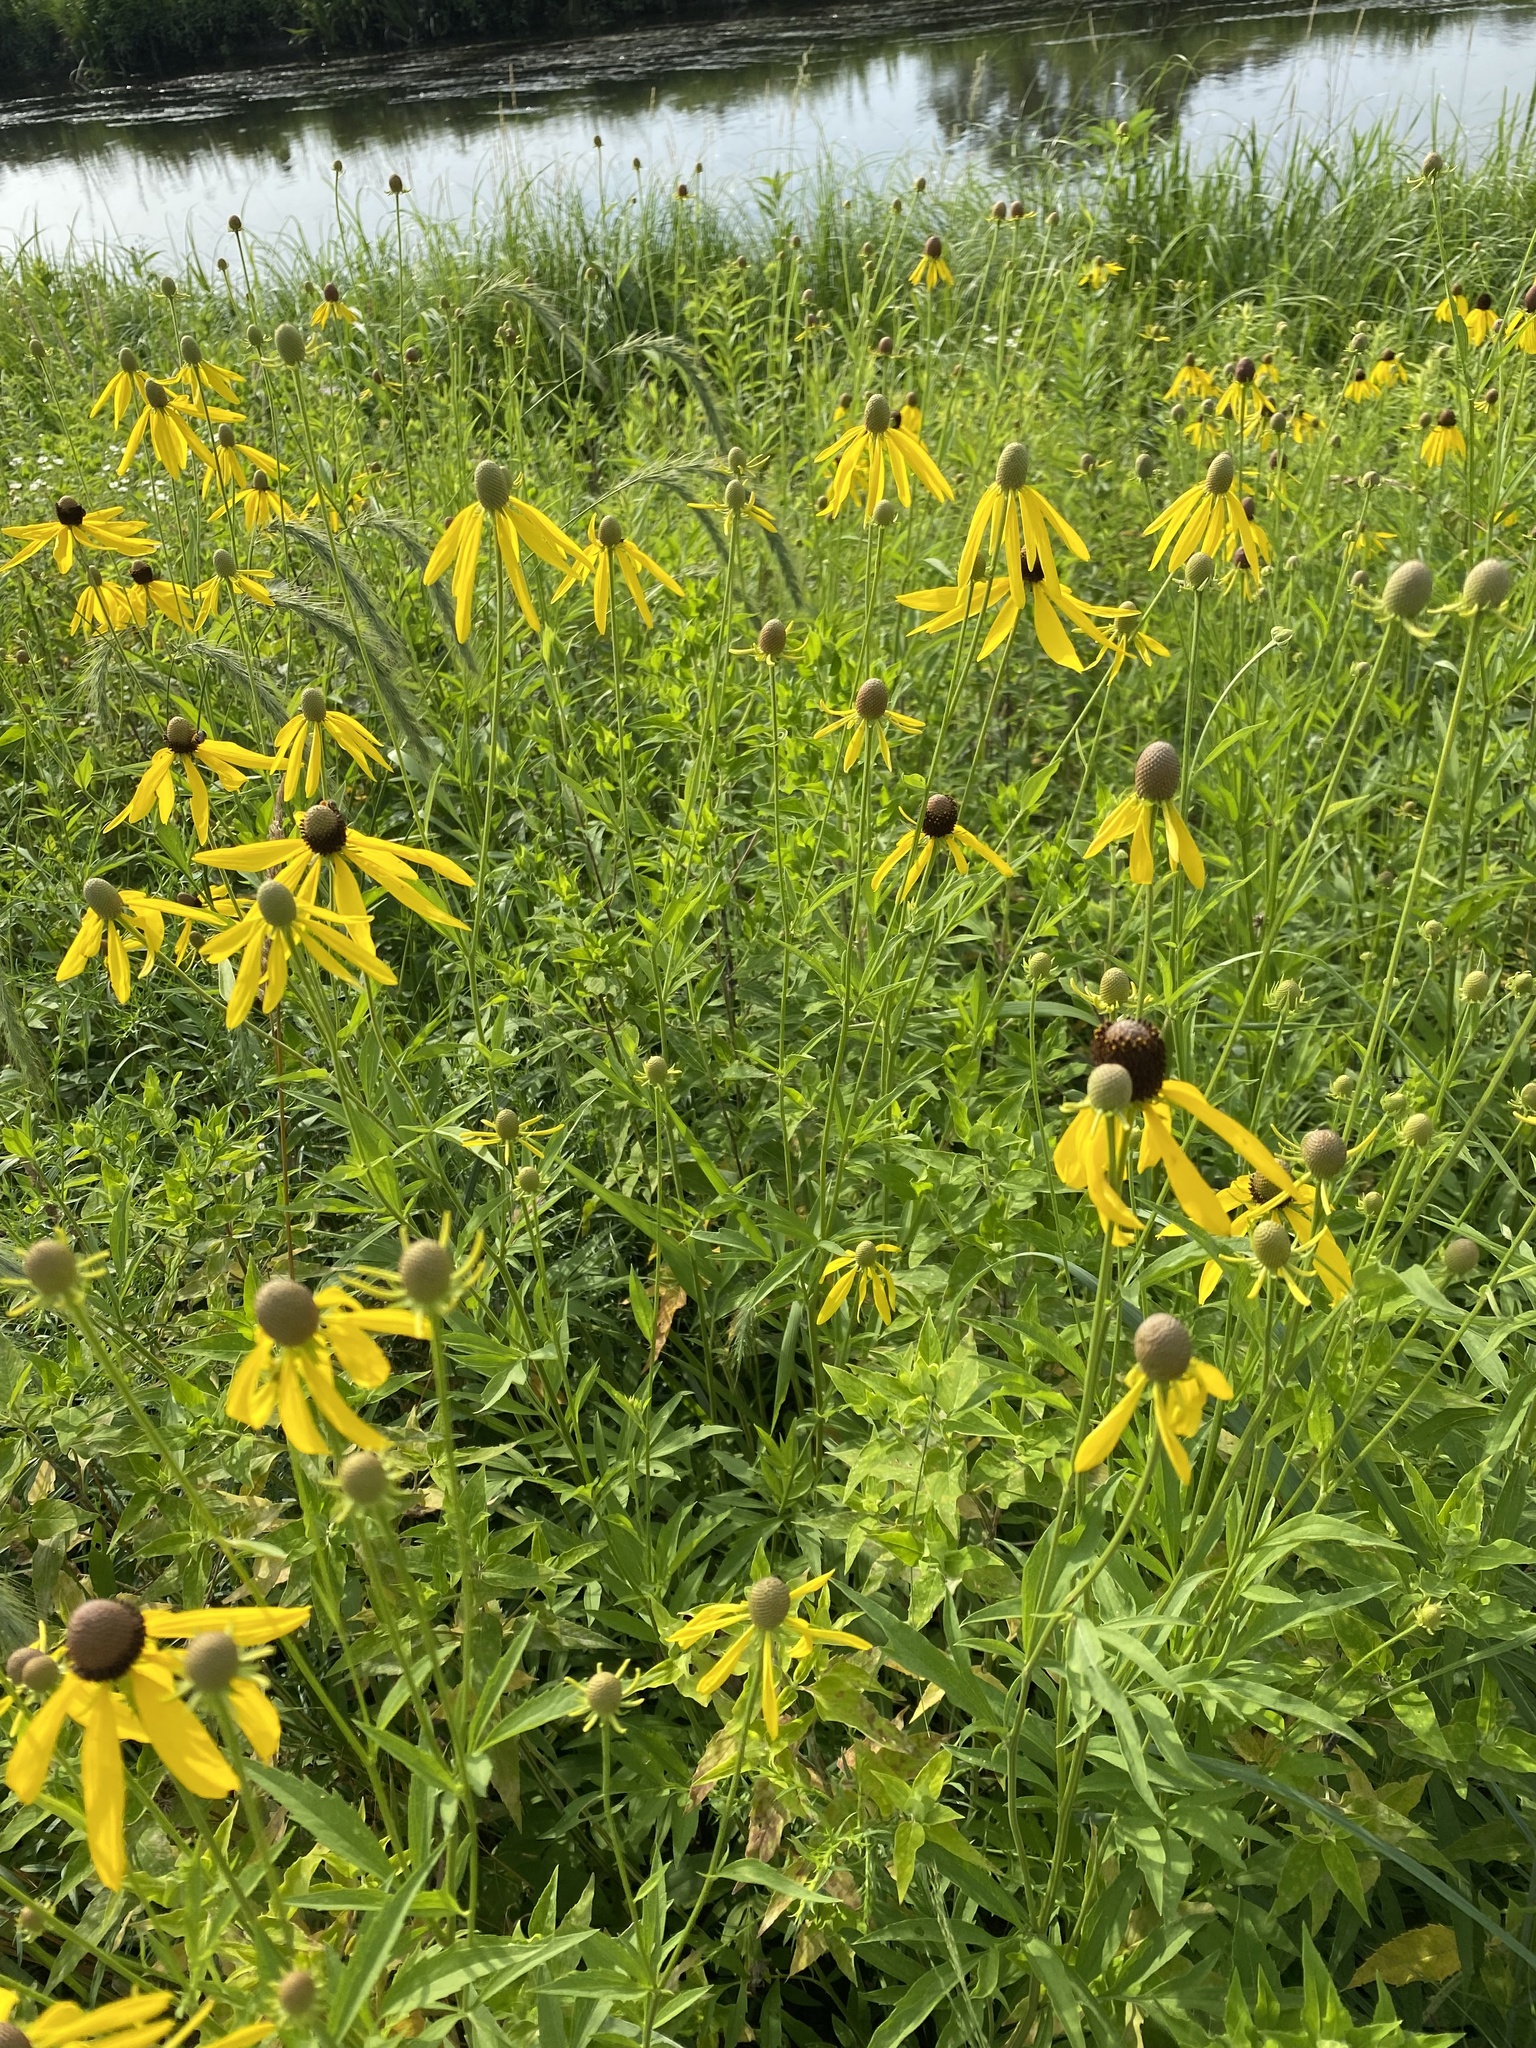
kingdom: Plantae
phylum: Tracheophyta
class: Magnoliopsida
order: Asterales
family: Asteraceae
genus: Ratibida
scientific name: Ratibida pinnata
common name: Drooping prairie-coneflower
